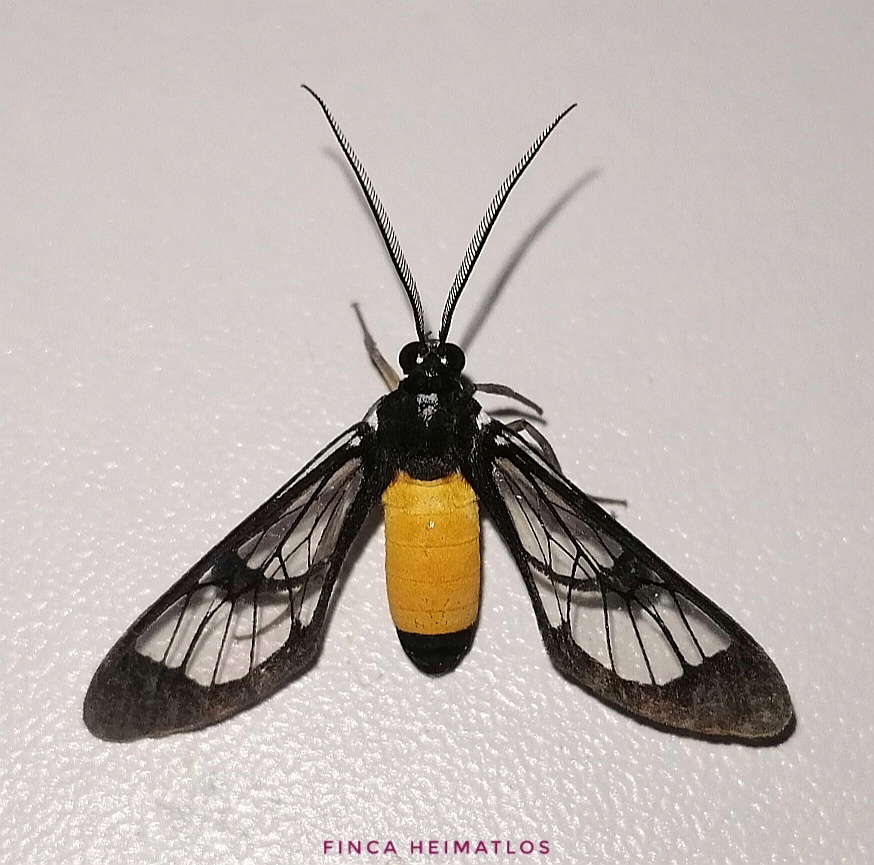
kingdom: Animalia
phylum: Arthropoda
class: Insecta
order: Lepidoptera
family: Erebidae
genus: Cosmosoma
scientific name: Cosmosoma stibosticta
